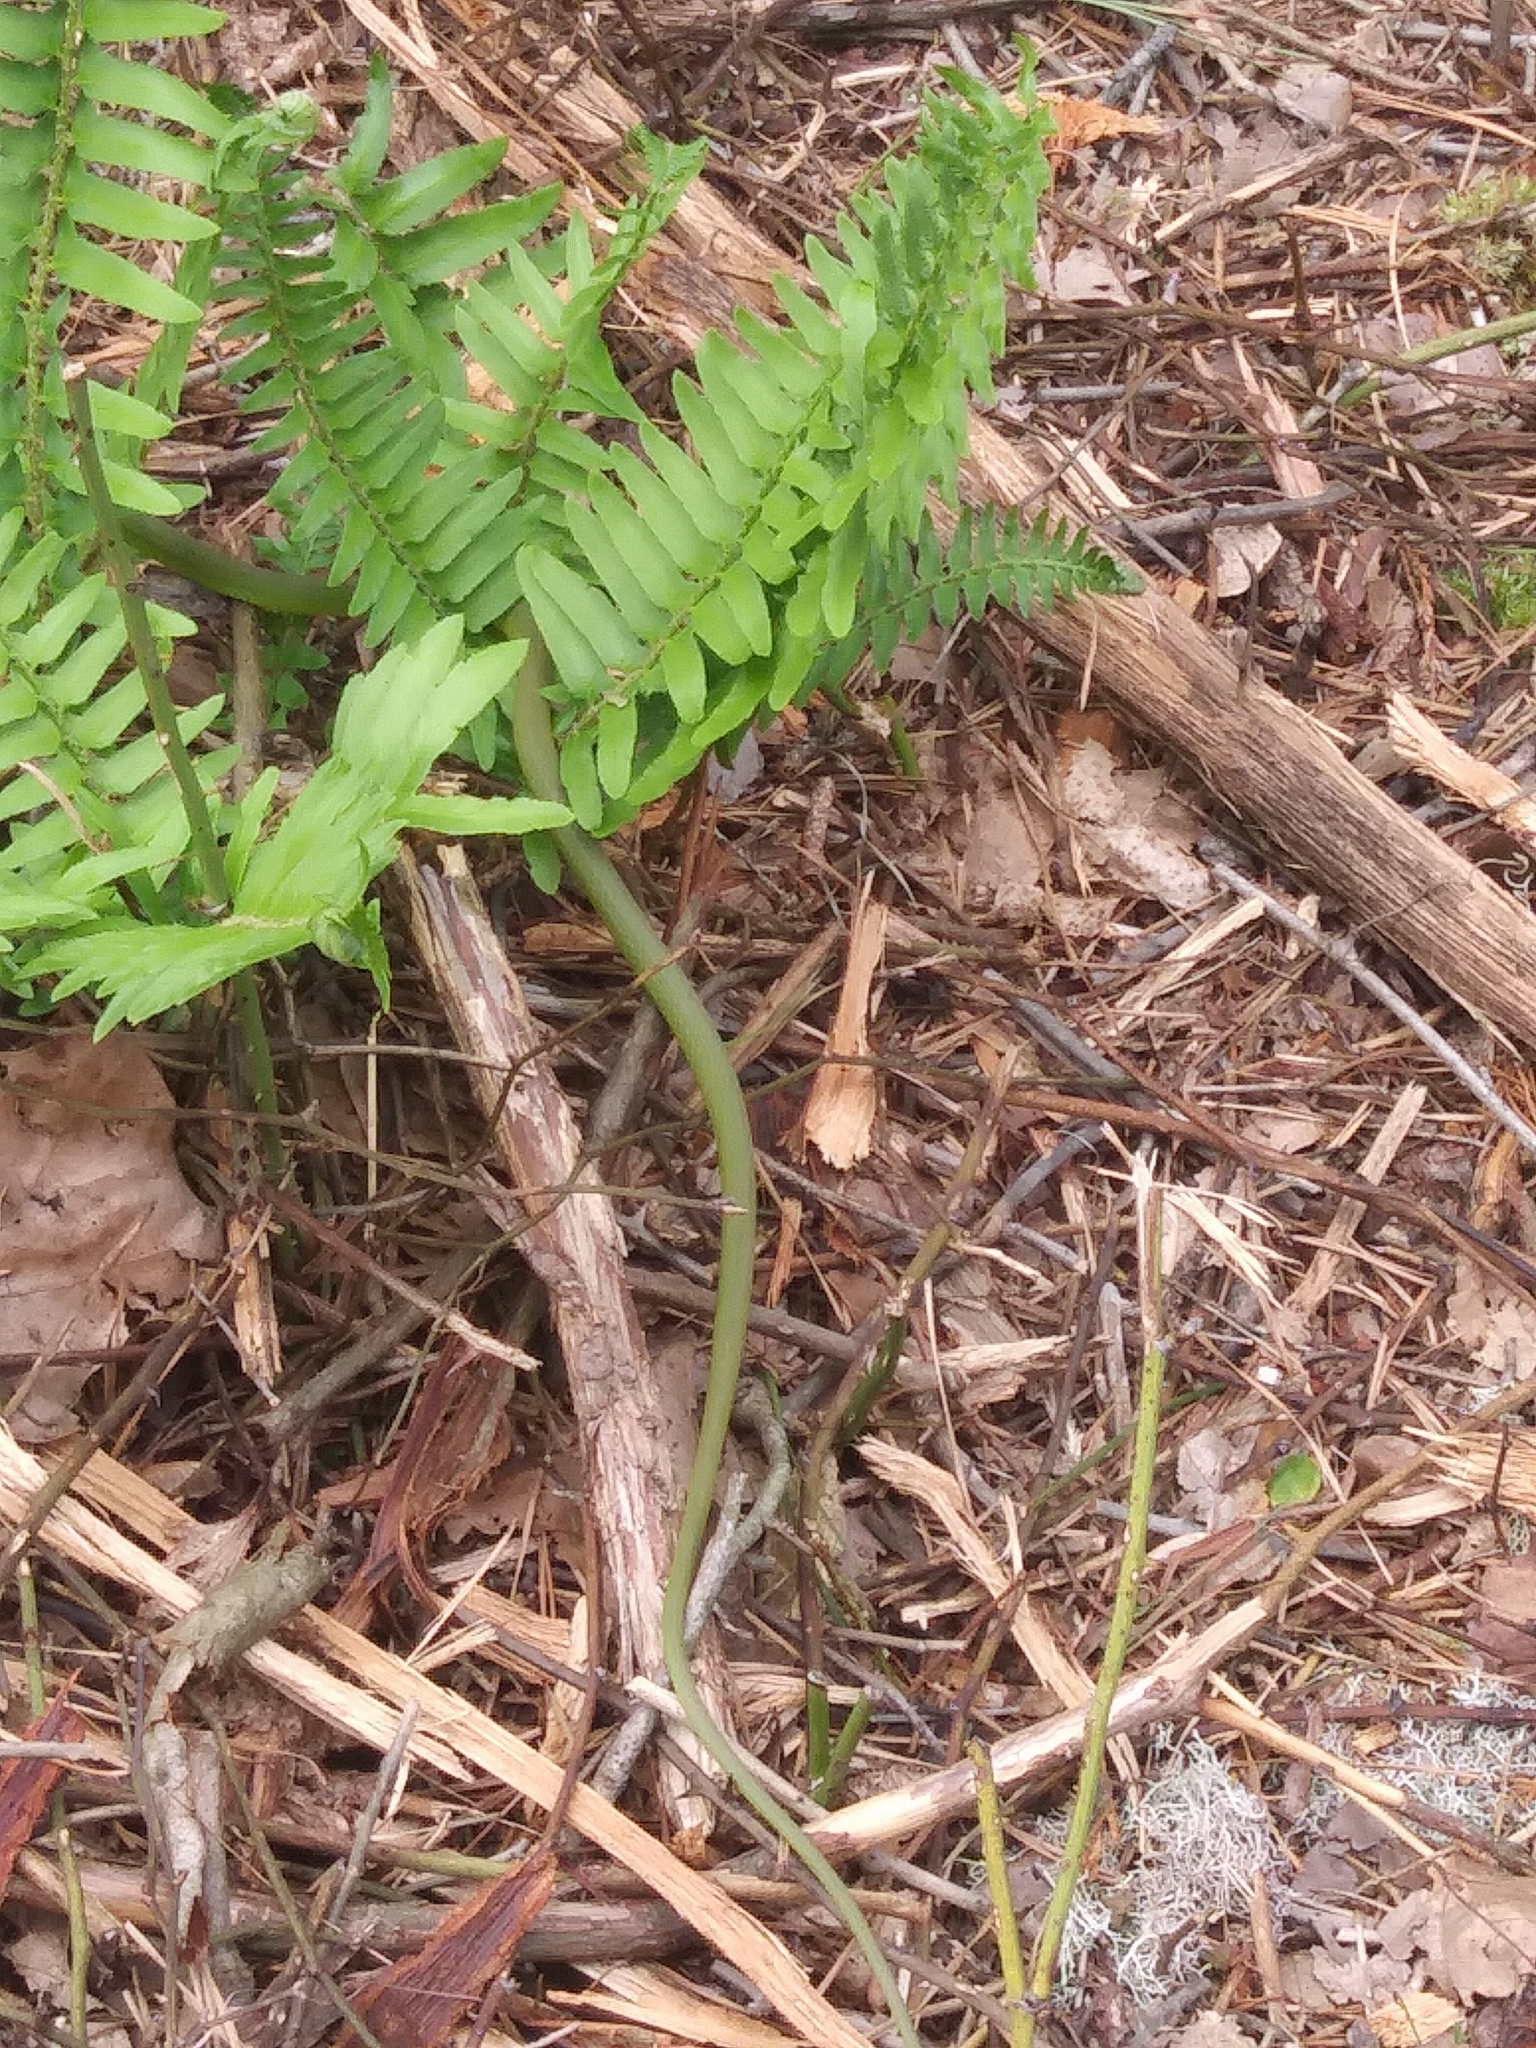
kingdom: Animalia
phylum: Chordata
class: Squamata
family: Colubridae
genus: Opheodrys
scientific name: Opheodrys aestivus
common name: Rough greensnake
